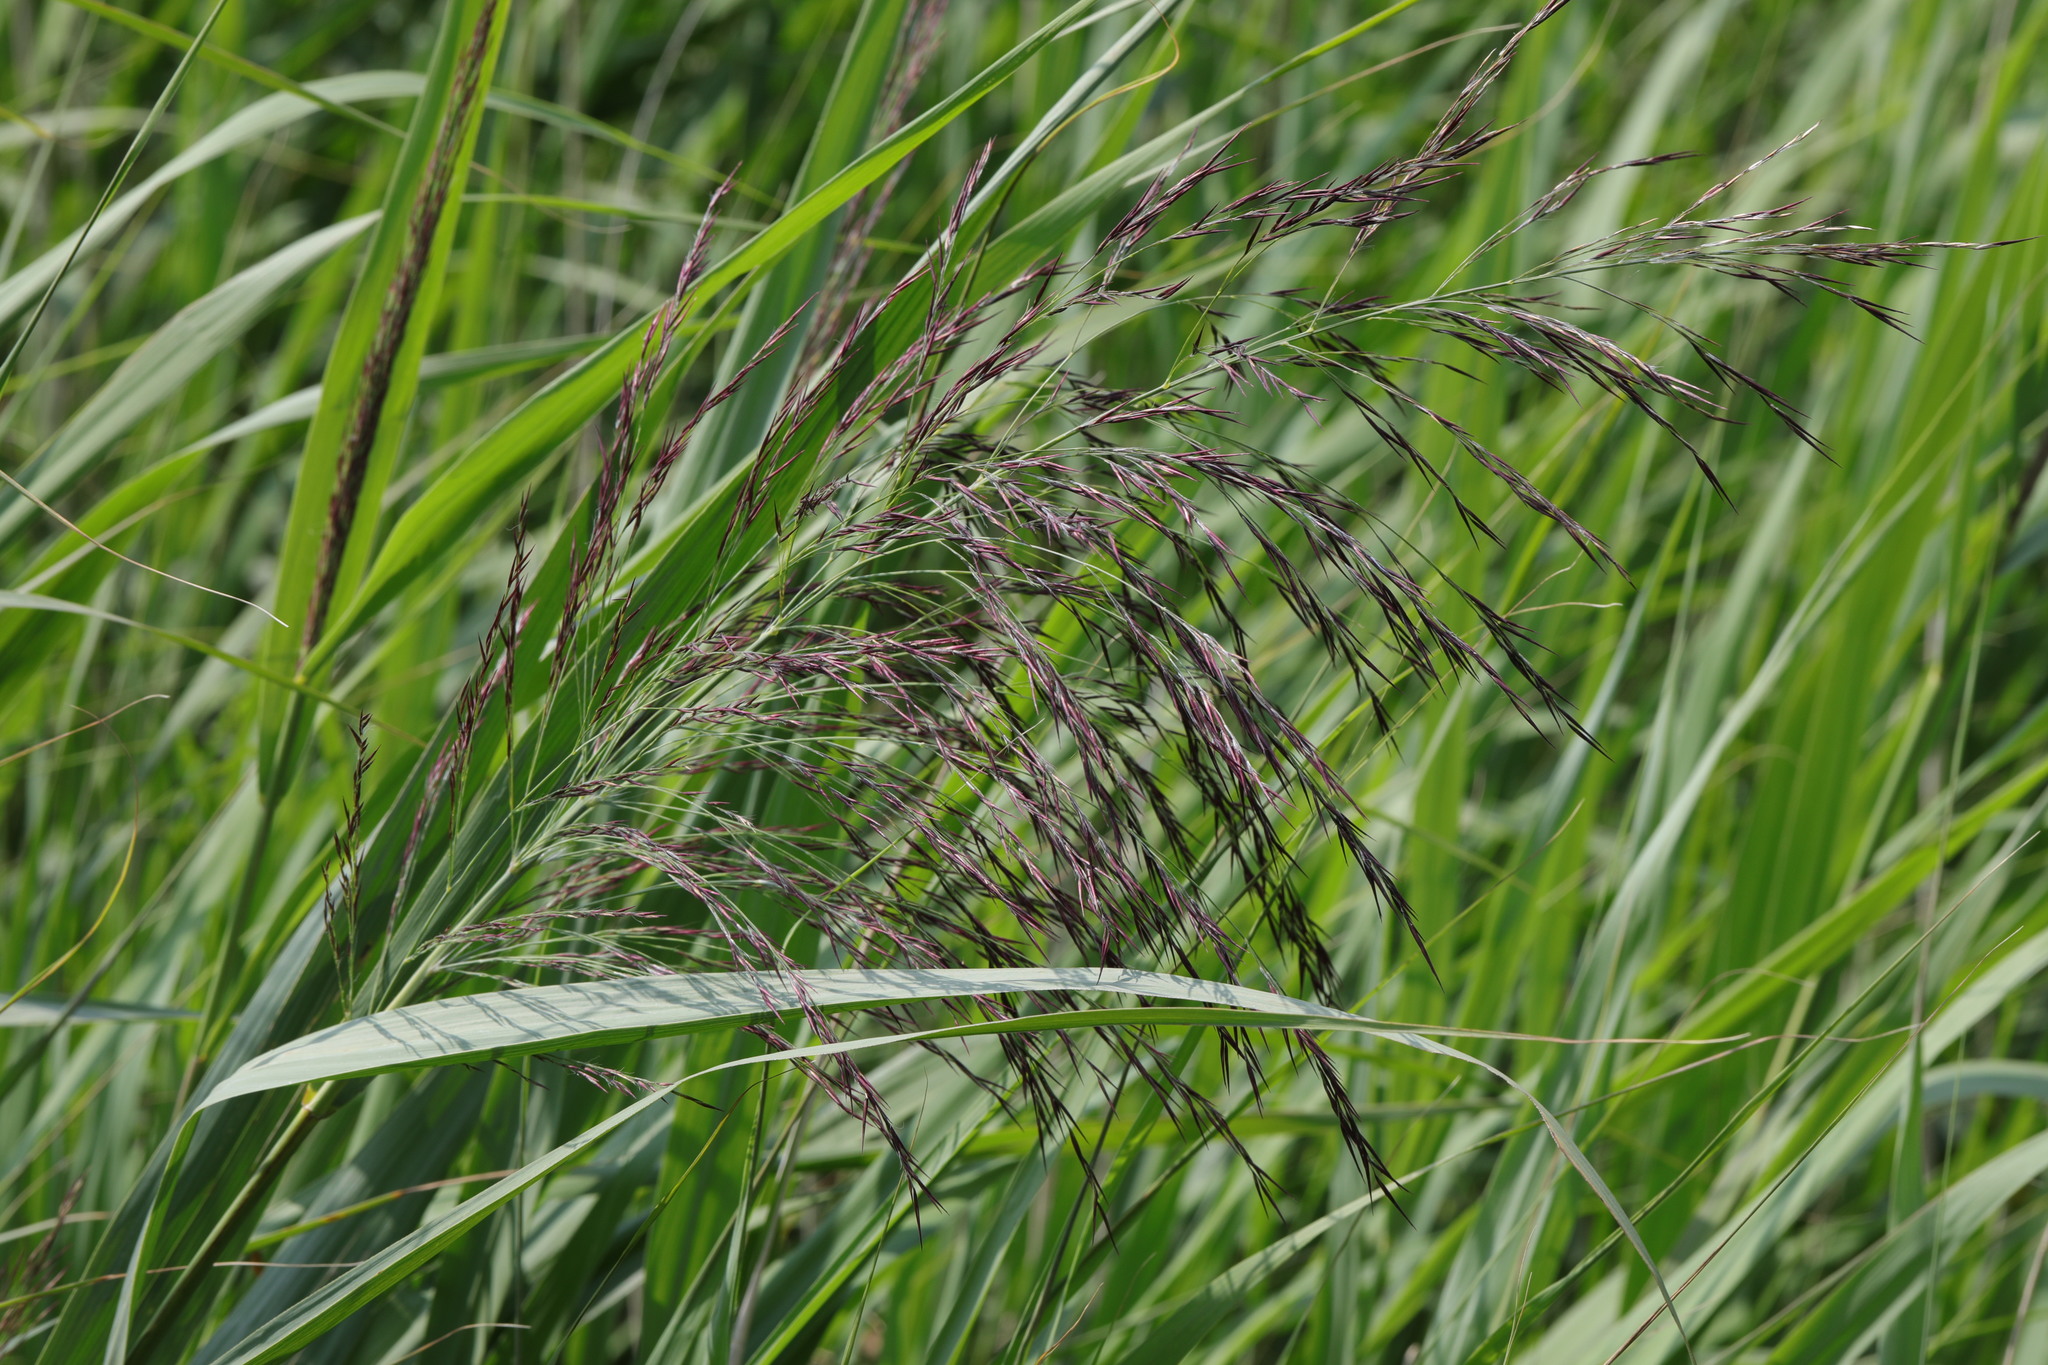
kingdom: Plantae
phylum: Tracheophyta
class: Liliopsida
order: Poales
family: Poaceae
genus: Phragmites
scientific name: Phragmites australis
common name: Common reed
